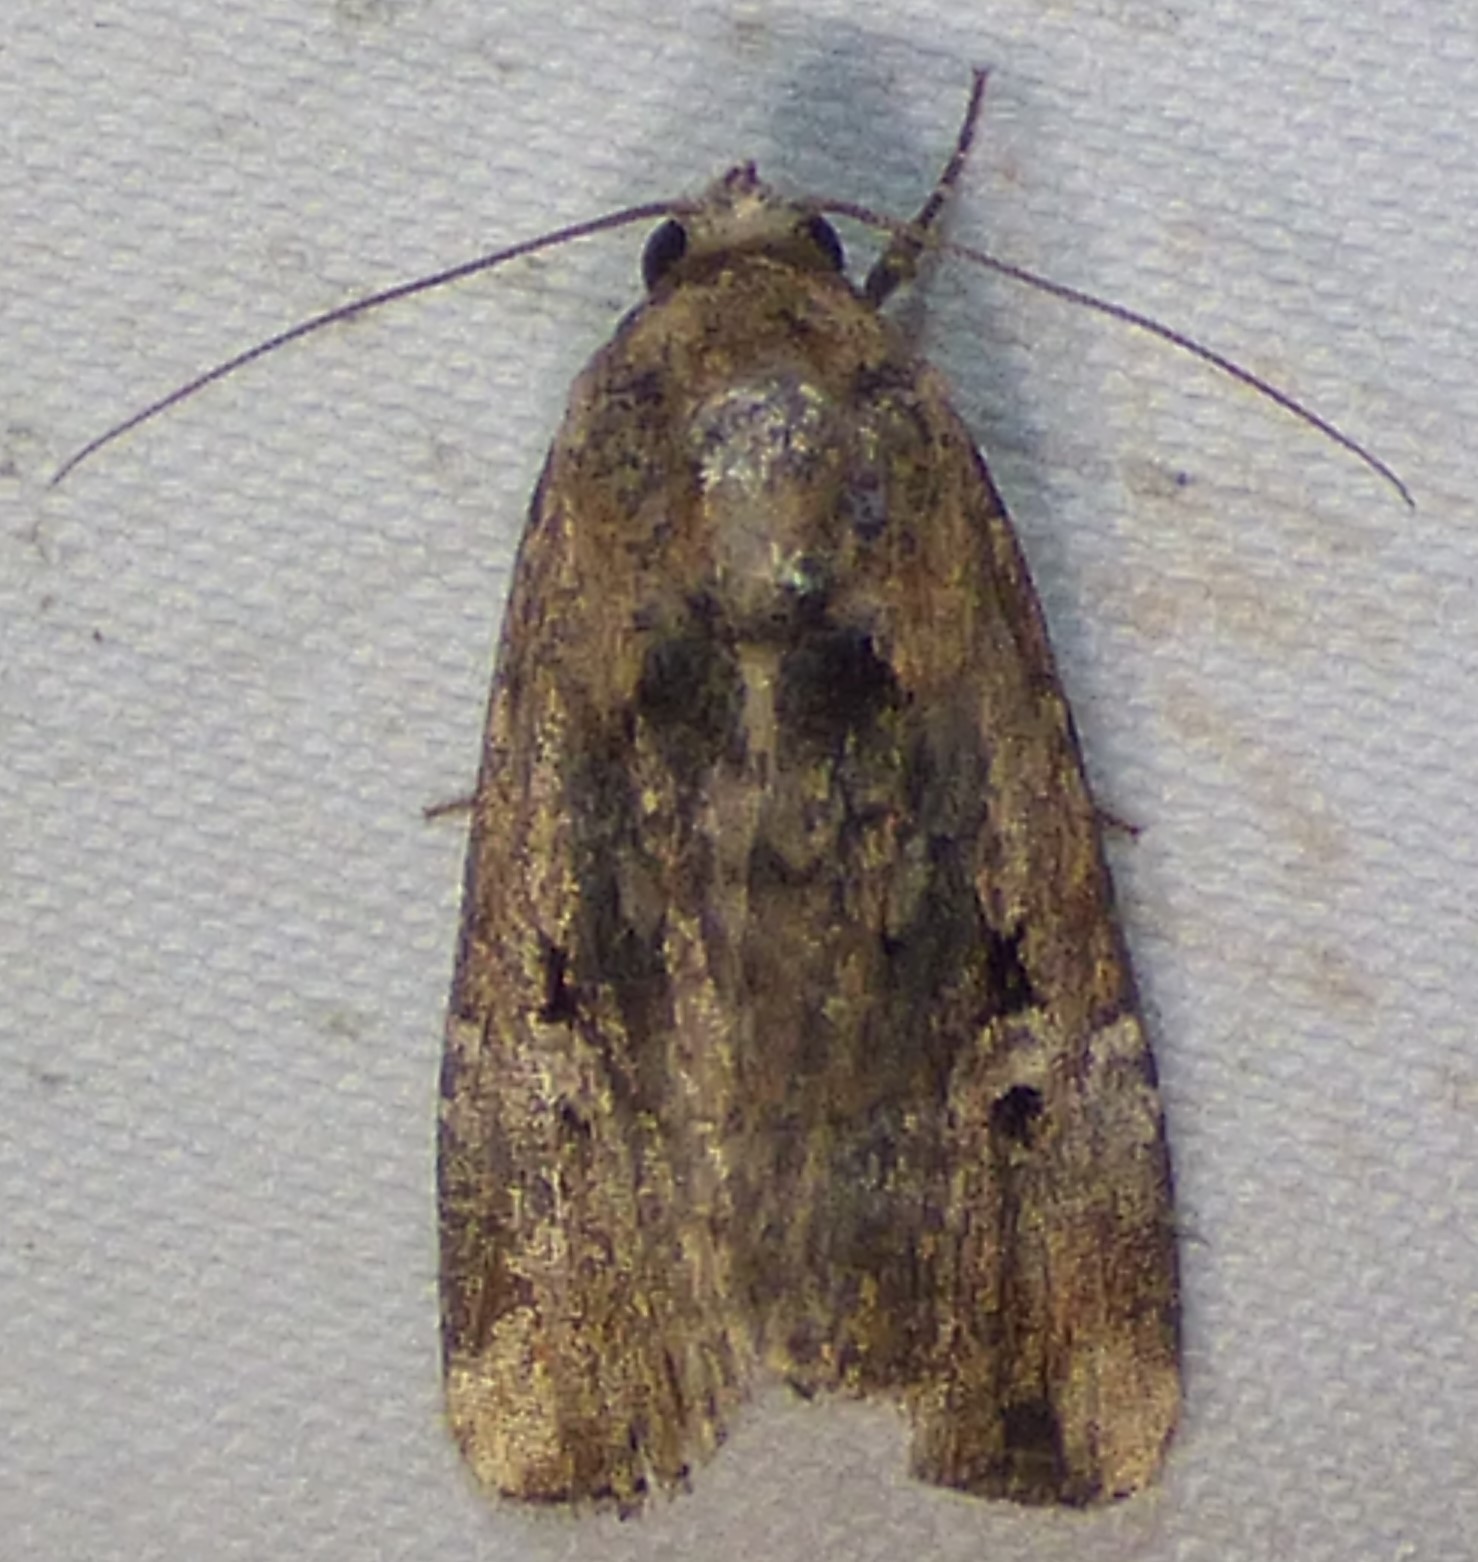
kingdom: Animalia
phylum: Arthropoda
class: Insecta
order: Lepidoptera
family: Noctuidae
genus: Elaphria
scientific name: Elaphria chalcedonia
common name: Chalcedony midget
